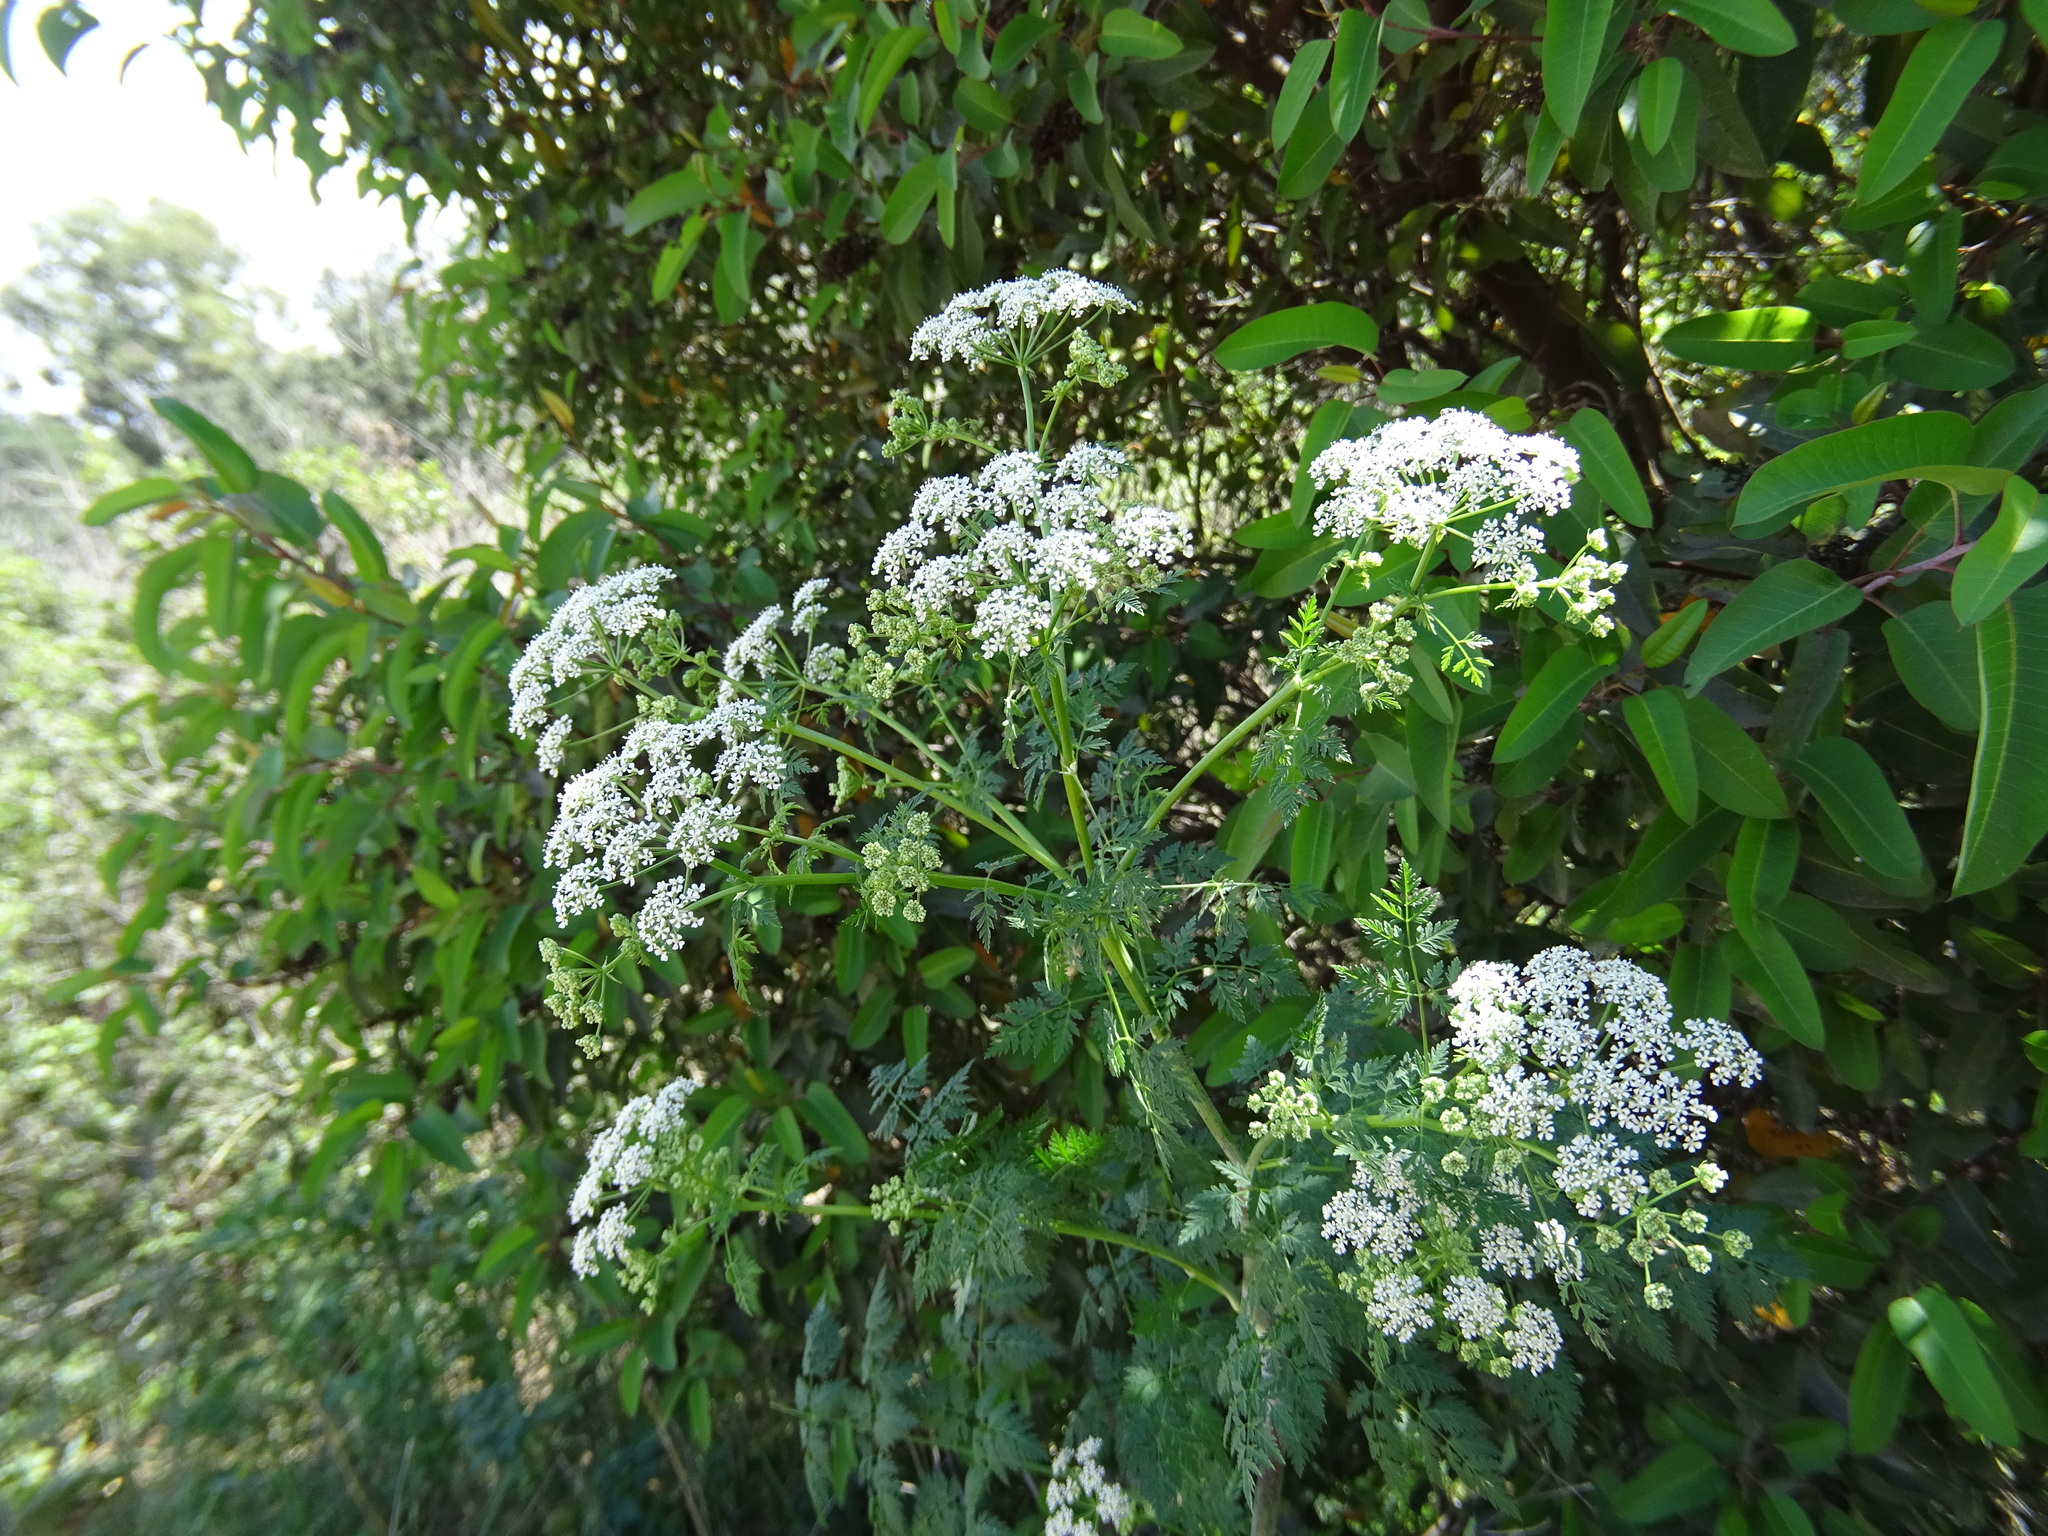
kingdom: Plantae
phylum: Tracheophyta
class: Magnoliopsida
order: Apiales
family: Apiaceae
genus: Conium
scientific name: Conium maculatum
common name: Hemlock
